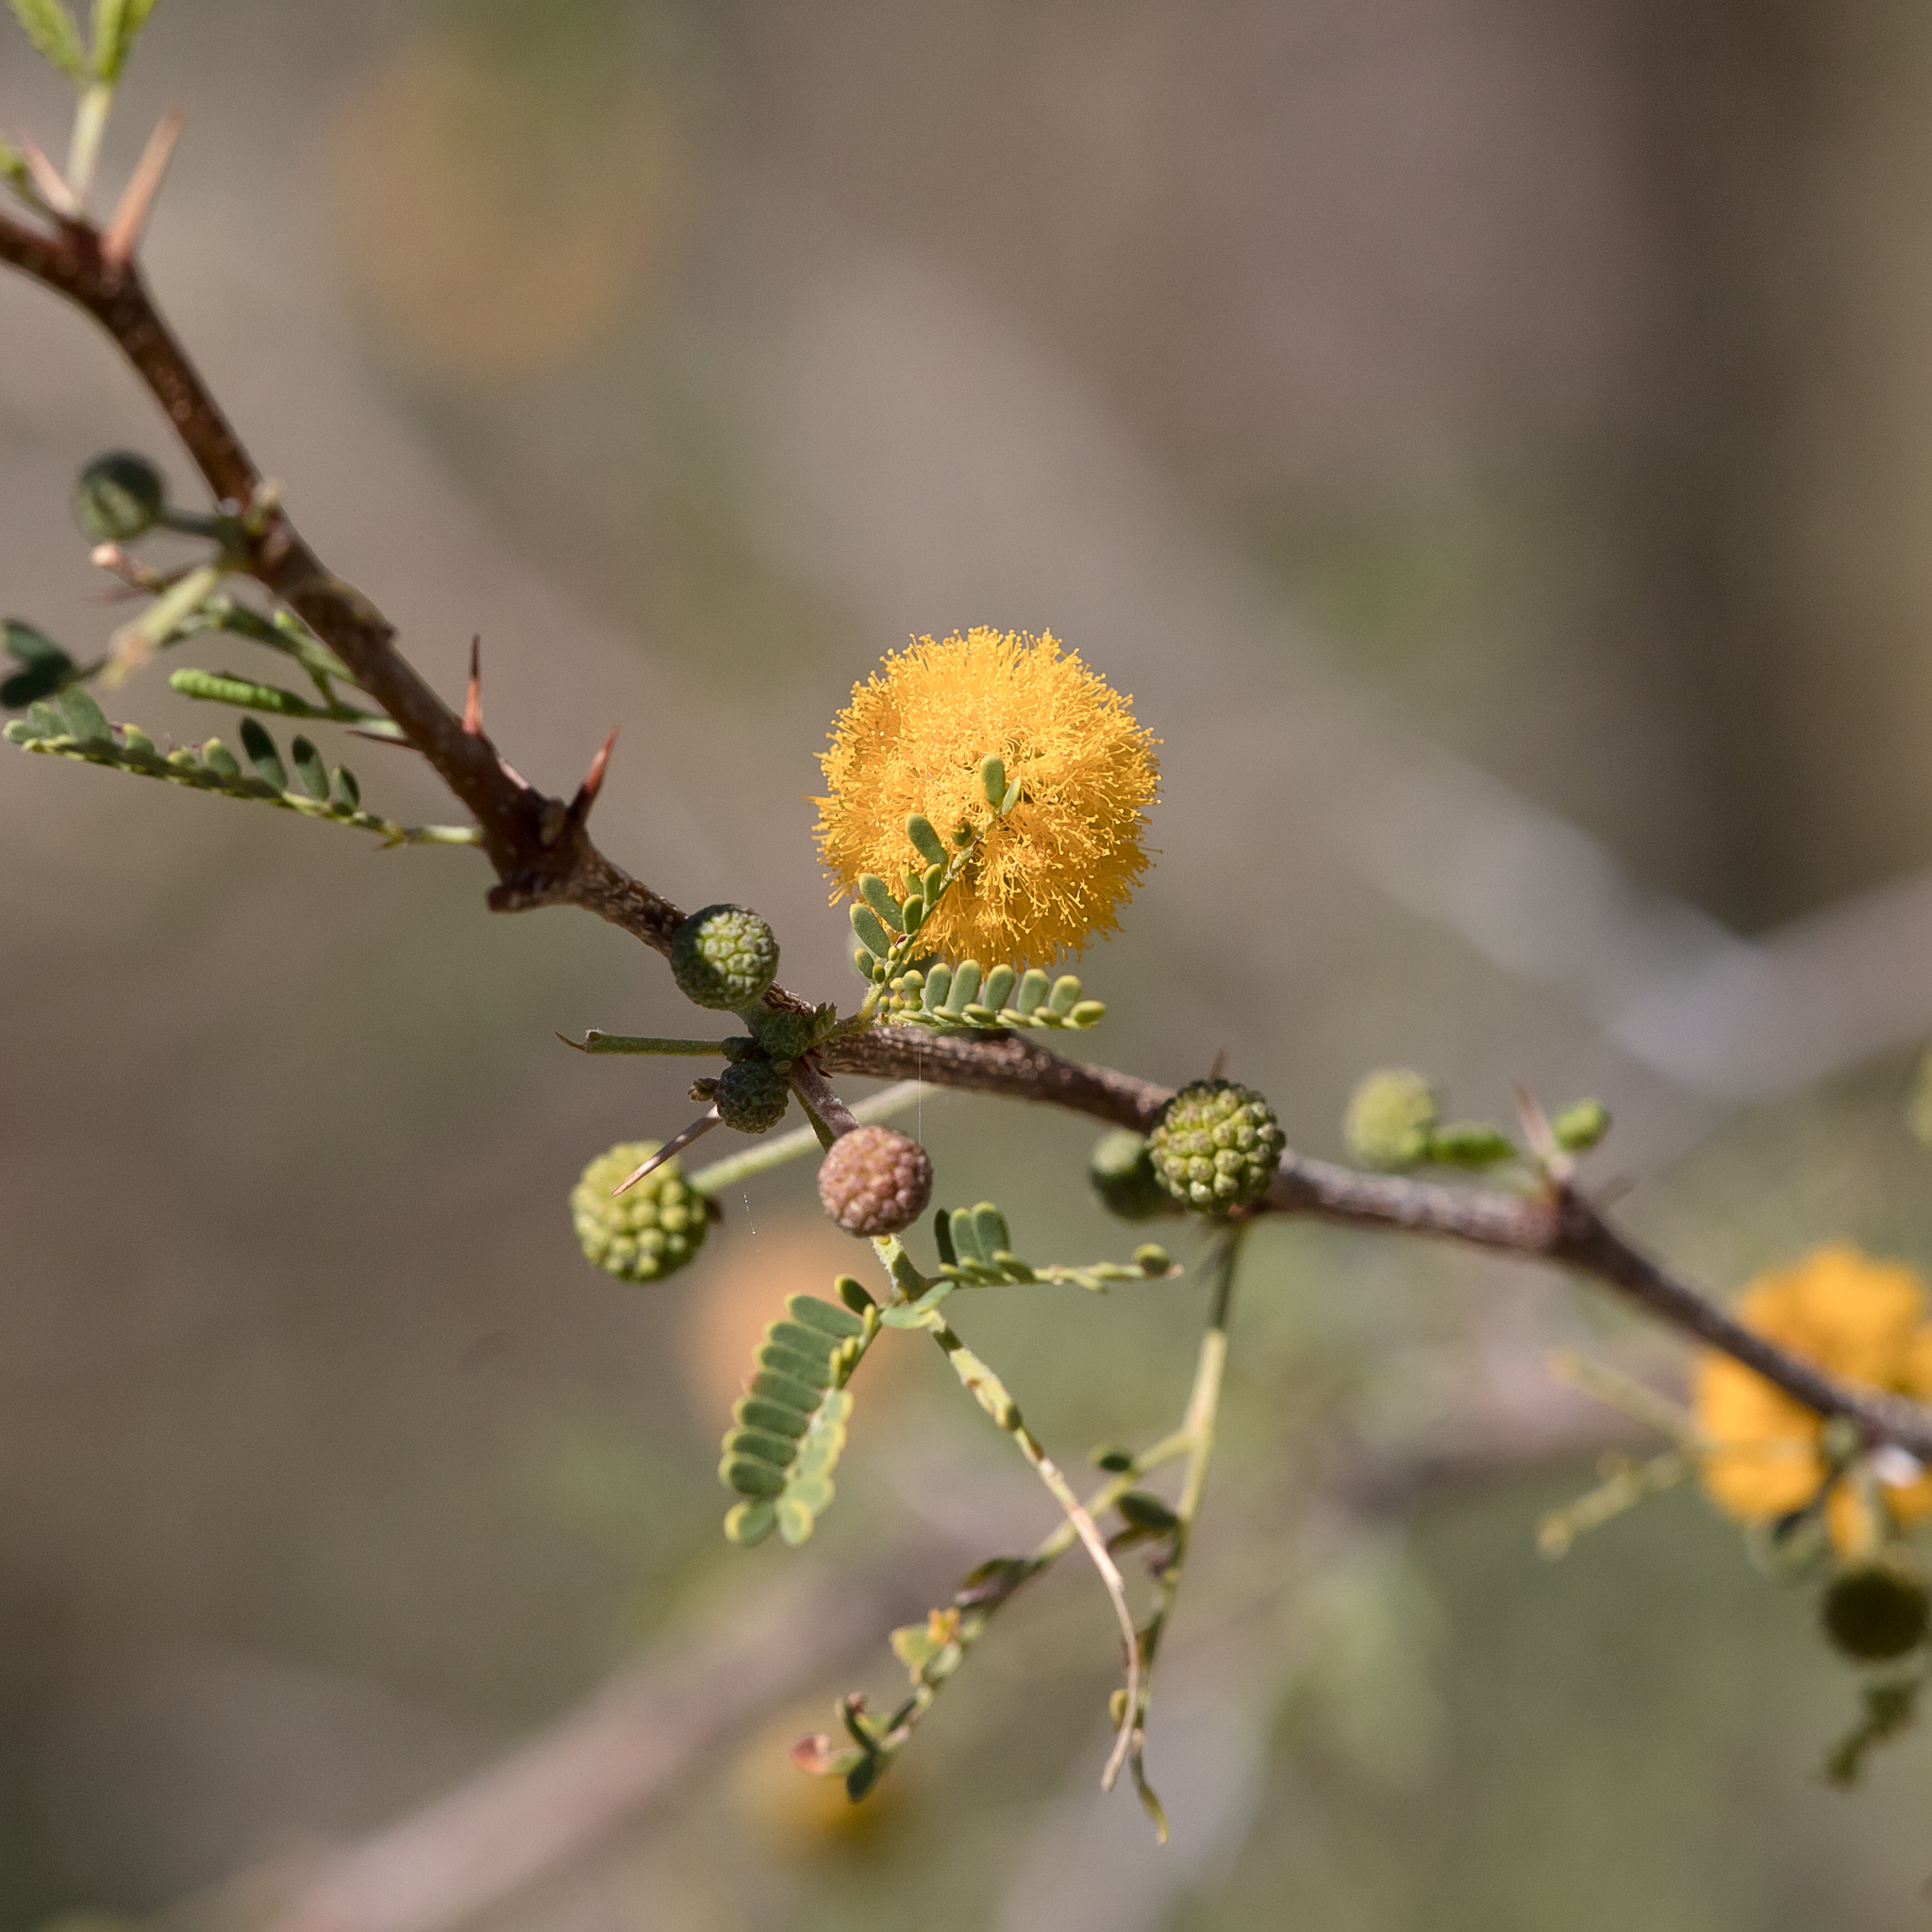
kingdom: Plantae
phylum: Tracheophyta
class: Magnoliopsida
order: Fabales
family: Fabaceae
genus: Vachellia
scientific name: Vachellia farnesiana
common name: Sweet acacia
